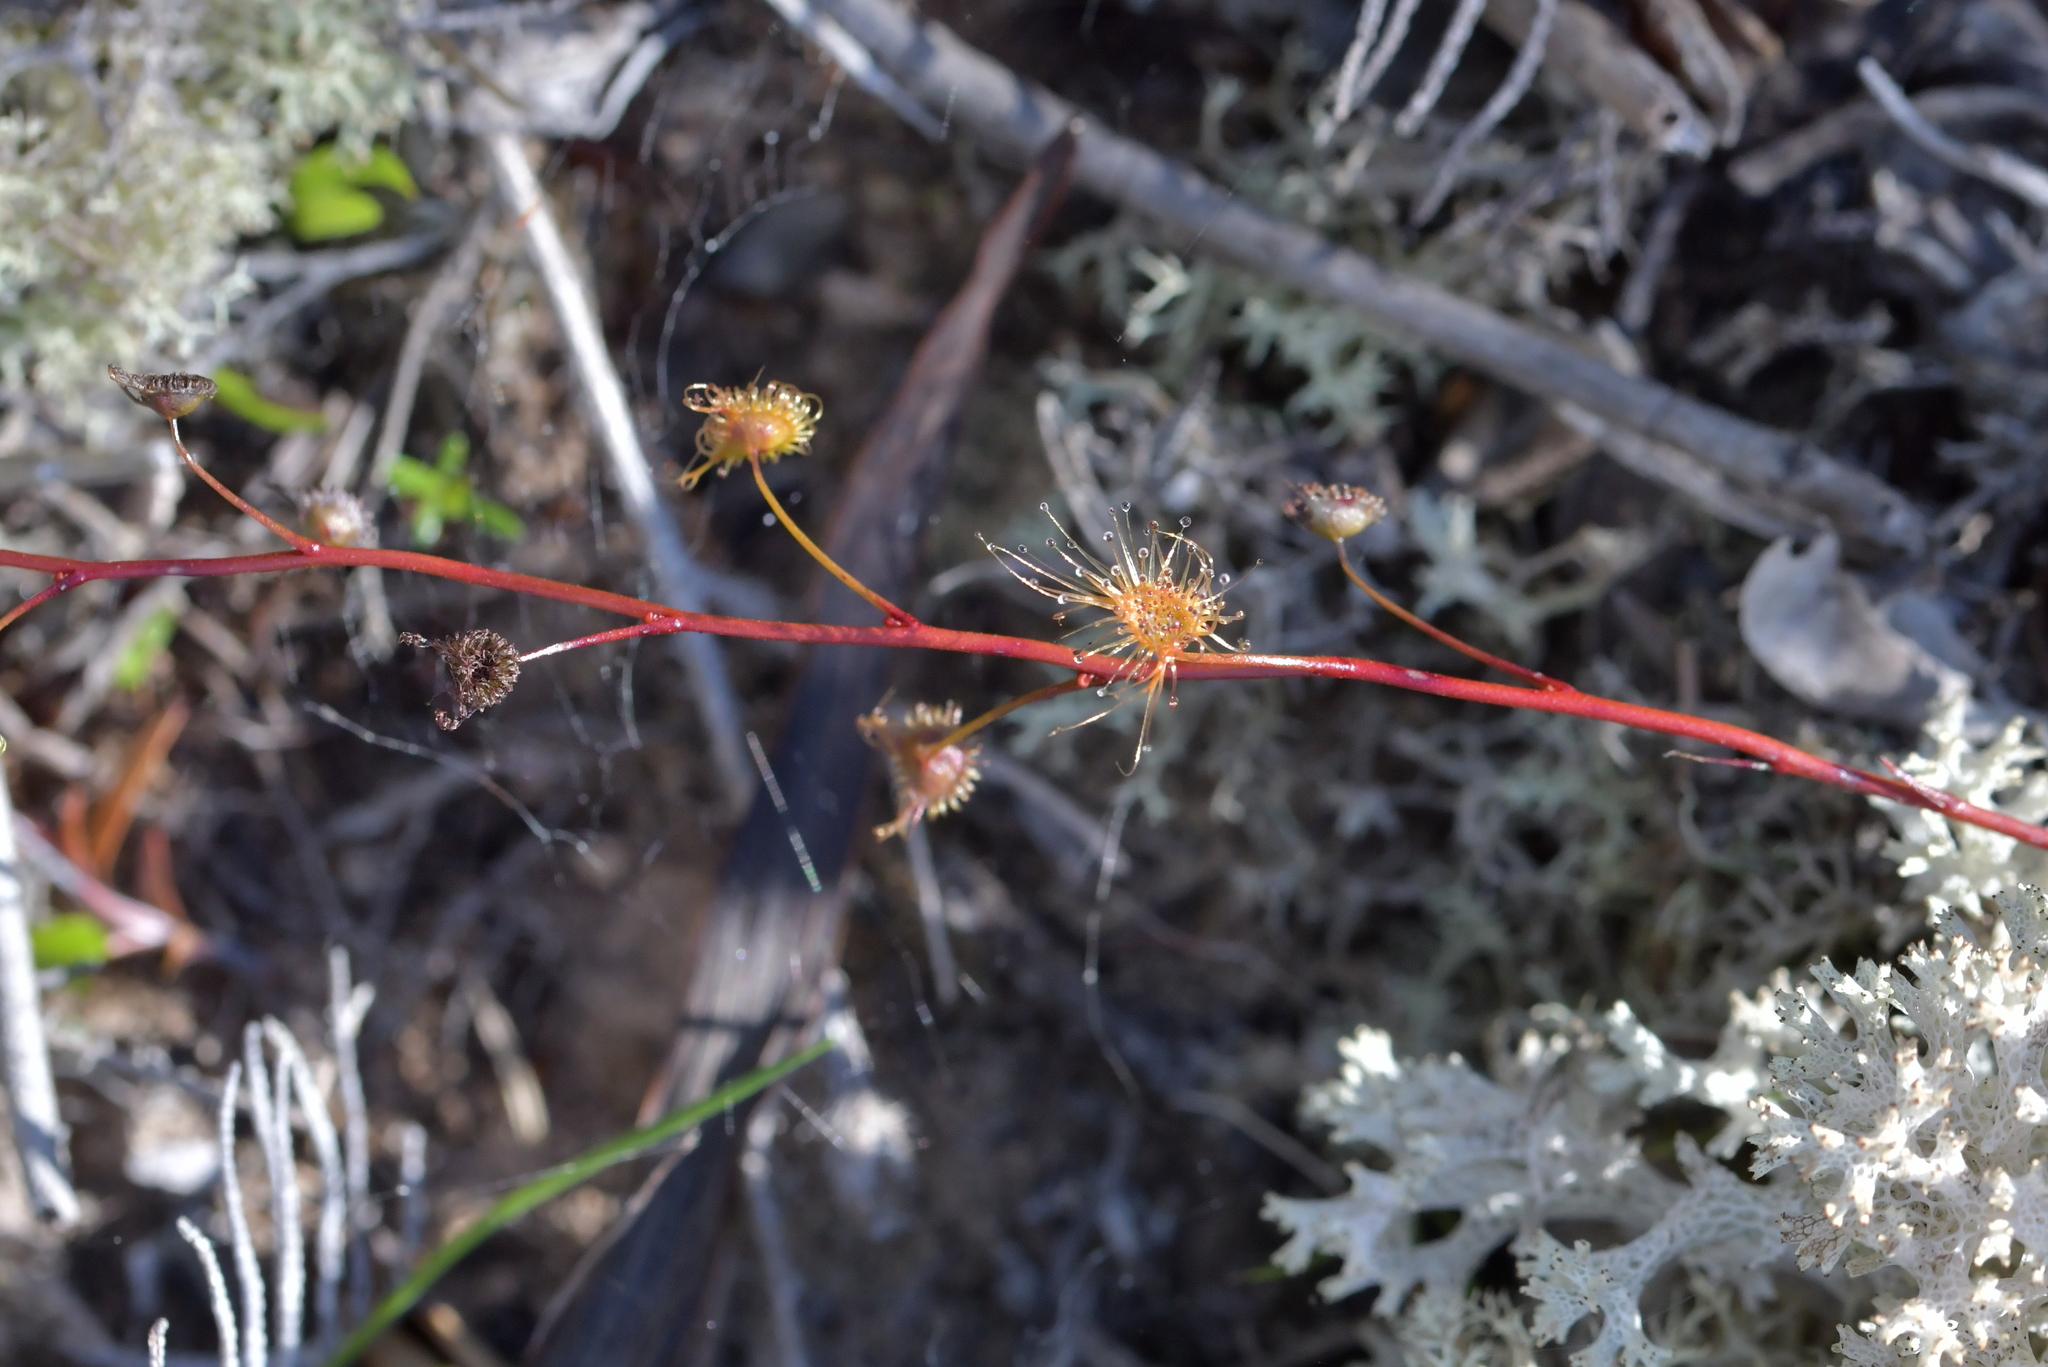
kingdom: Plantae
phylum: Tracheophyta
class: Magnoliopsida
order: Caryophyllales
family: Droseraceae
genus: Drosera
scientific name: Drosera peltata
